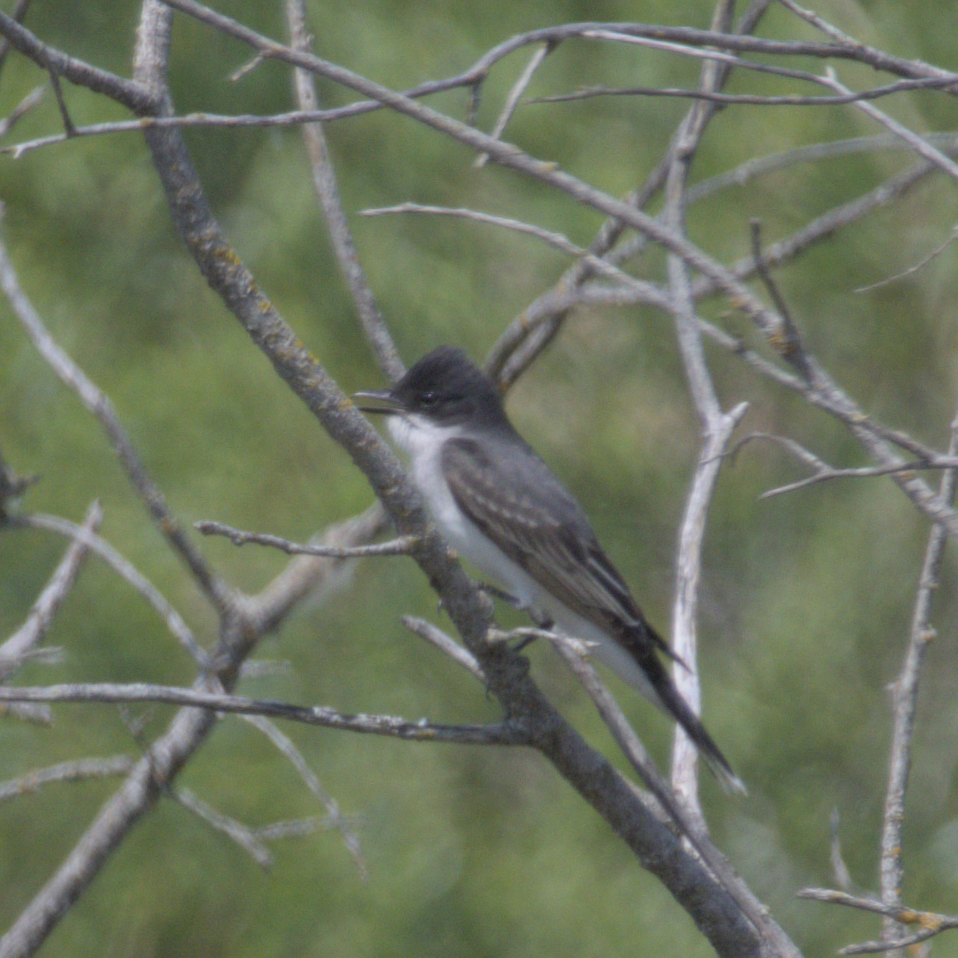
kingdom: Animalia
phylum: Chordata
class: Aves
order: Passeriformes
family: Tyrannidae
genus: Tyrannus
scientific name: Tyrannus tyrannus
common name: Eastern kingbird
